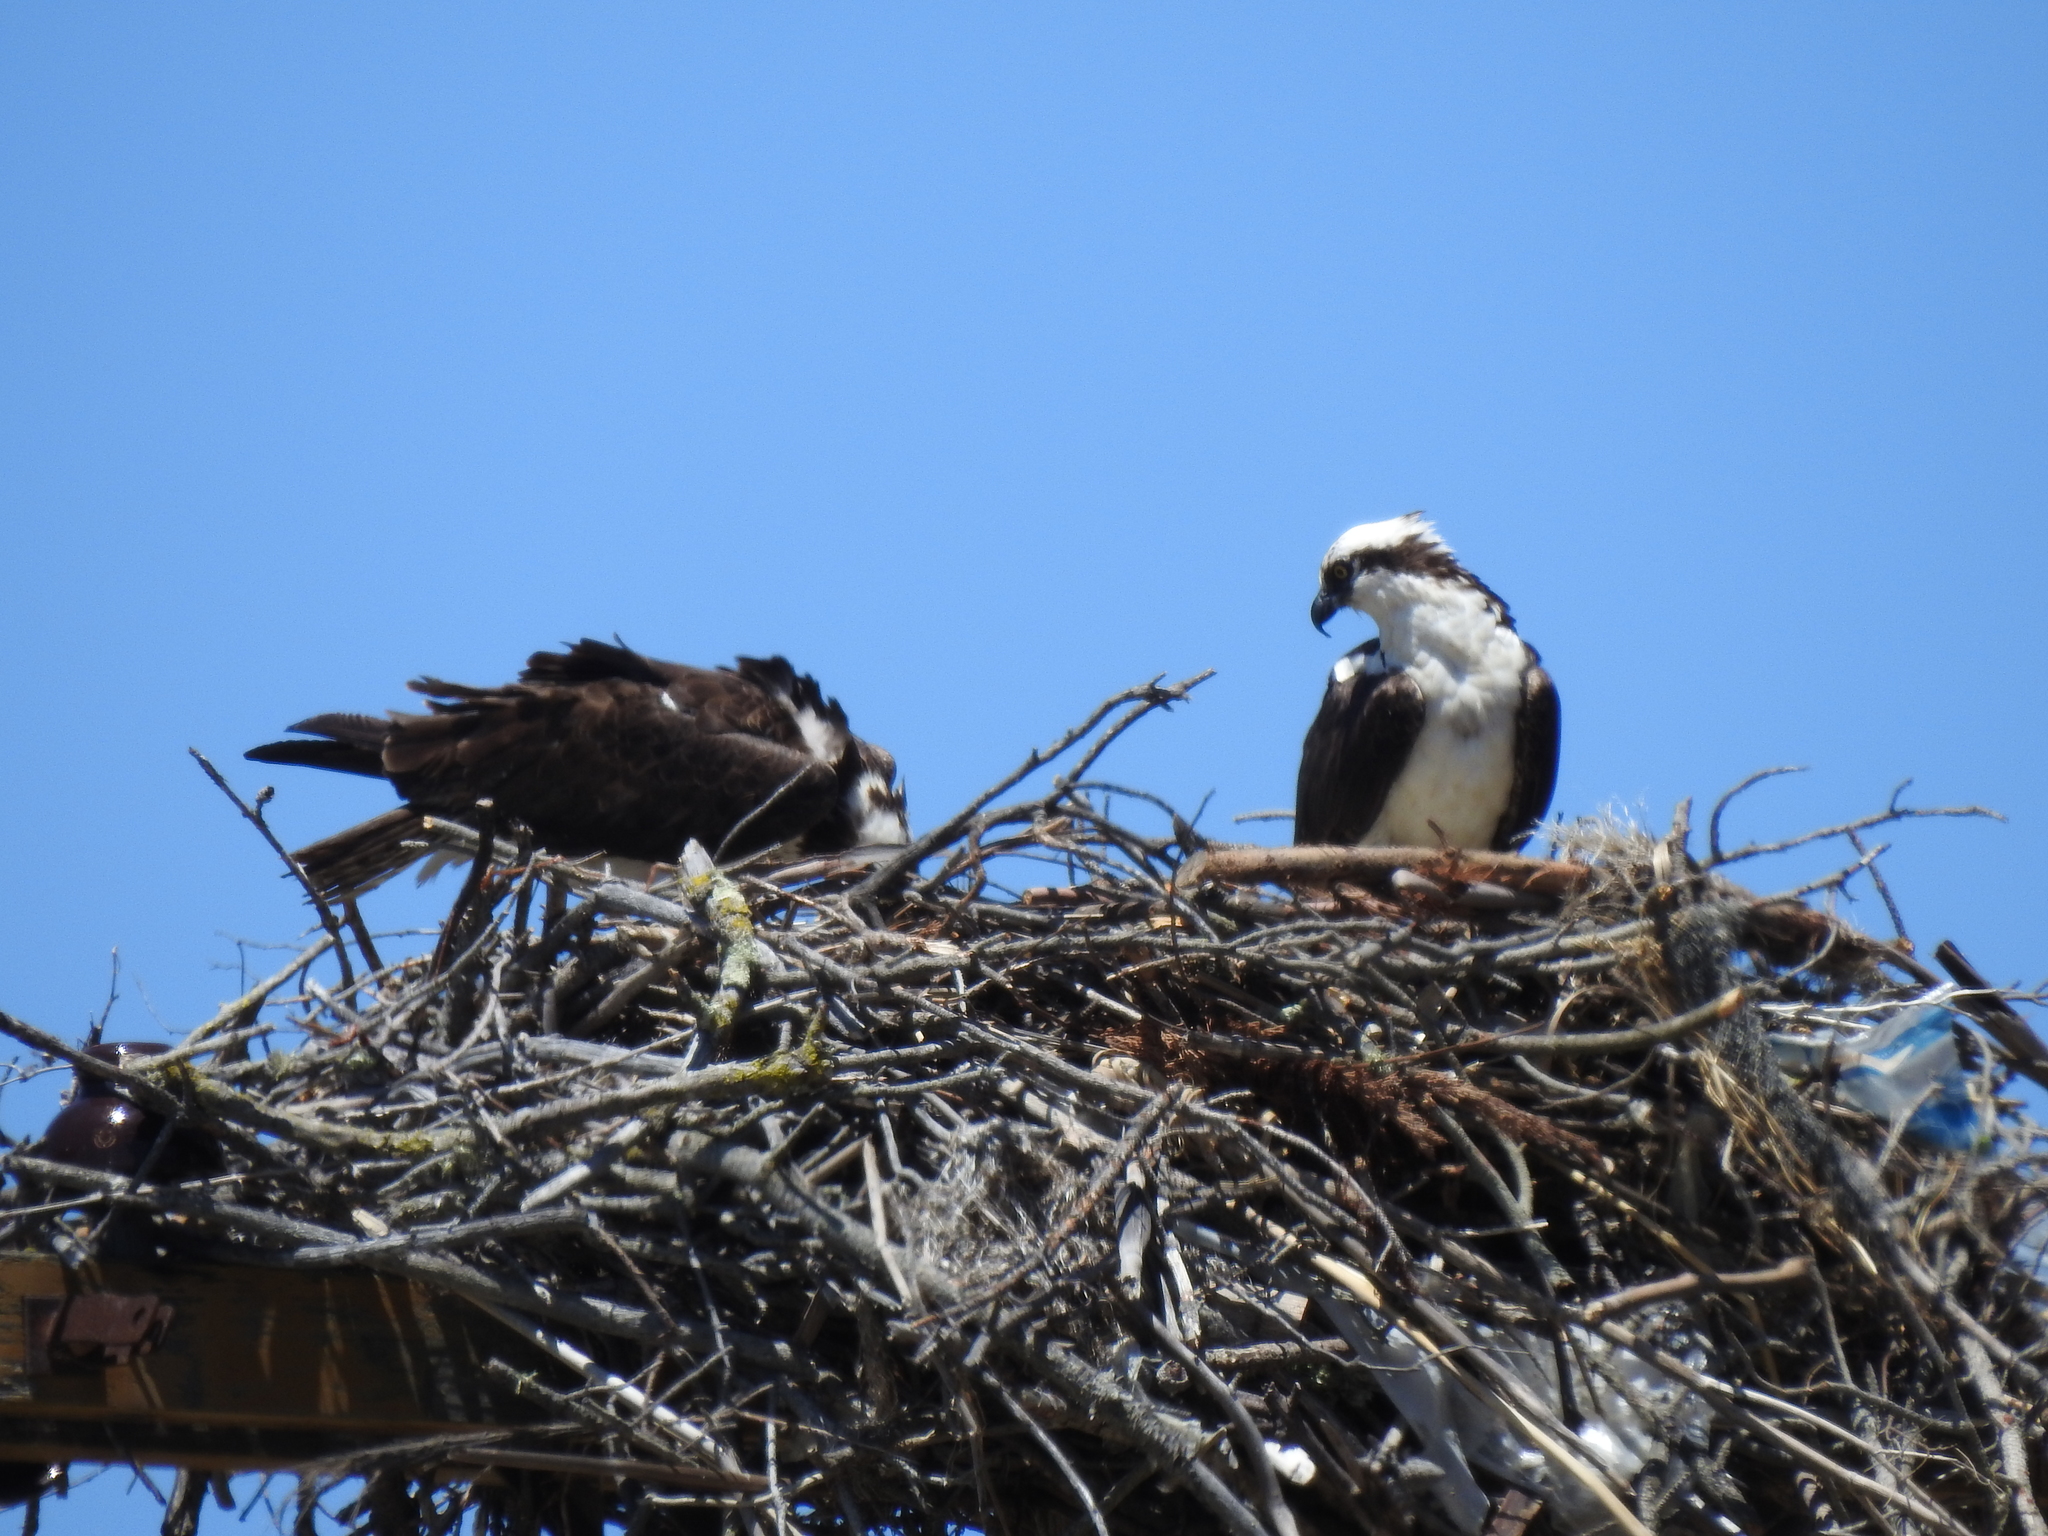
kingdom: Animalia
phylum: Chordata
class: Aves
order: Accipitriformes
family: Pandionidae
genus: Pandion
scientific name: Pandion haliaetus
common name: Osprey
